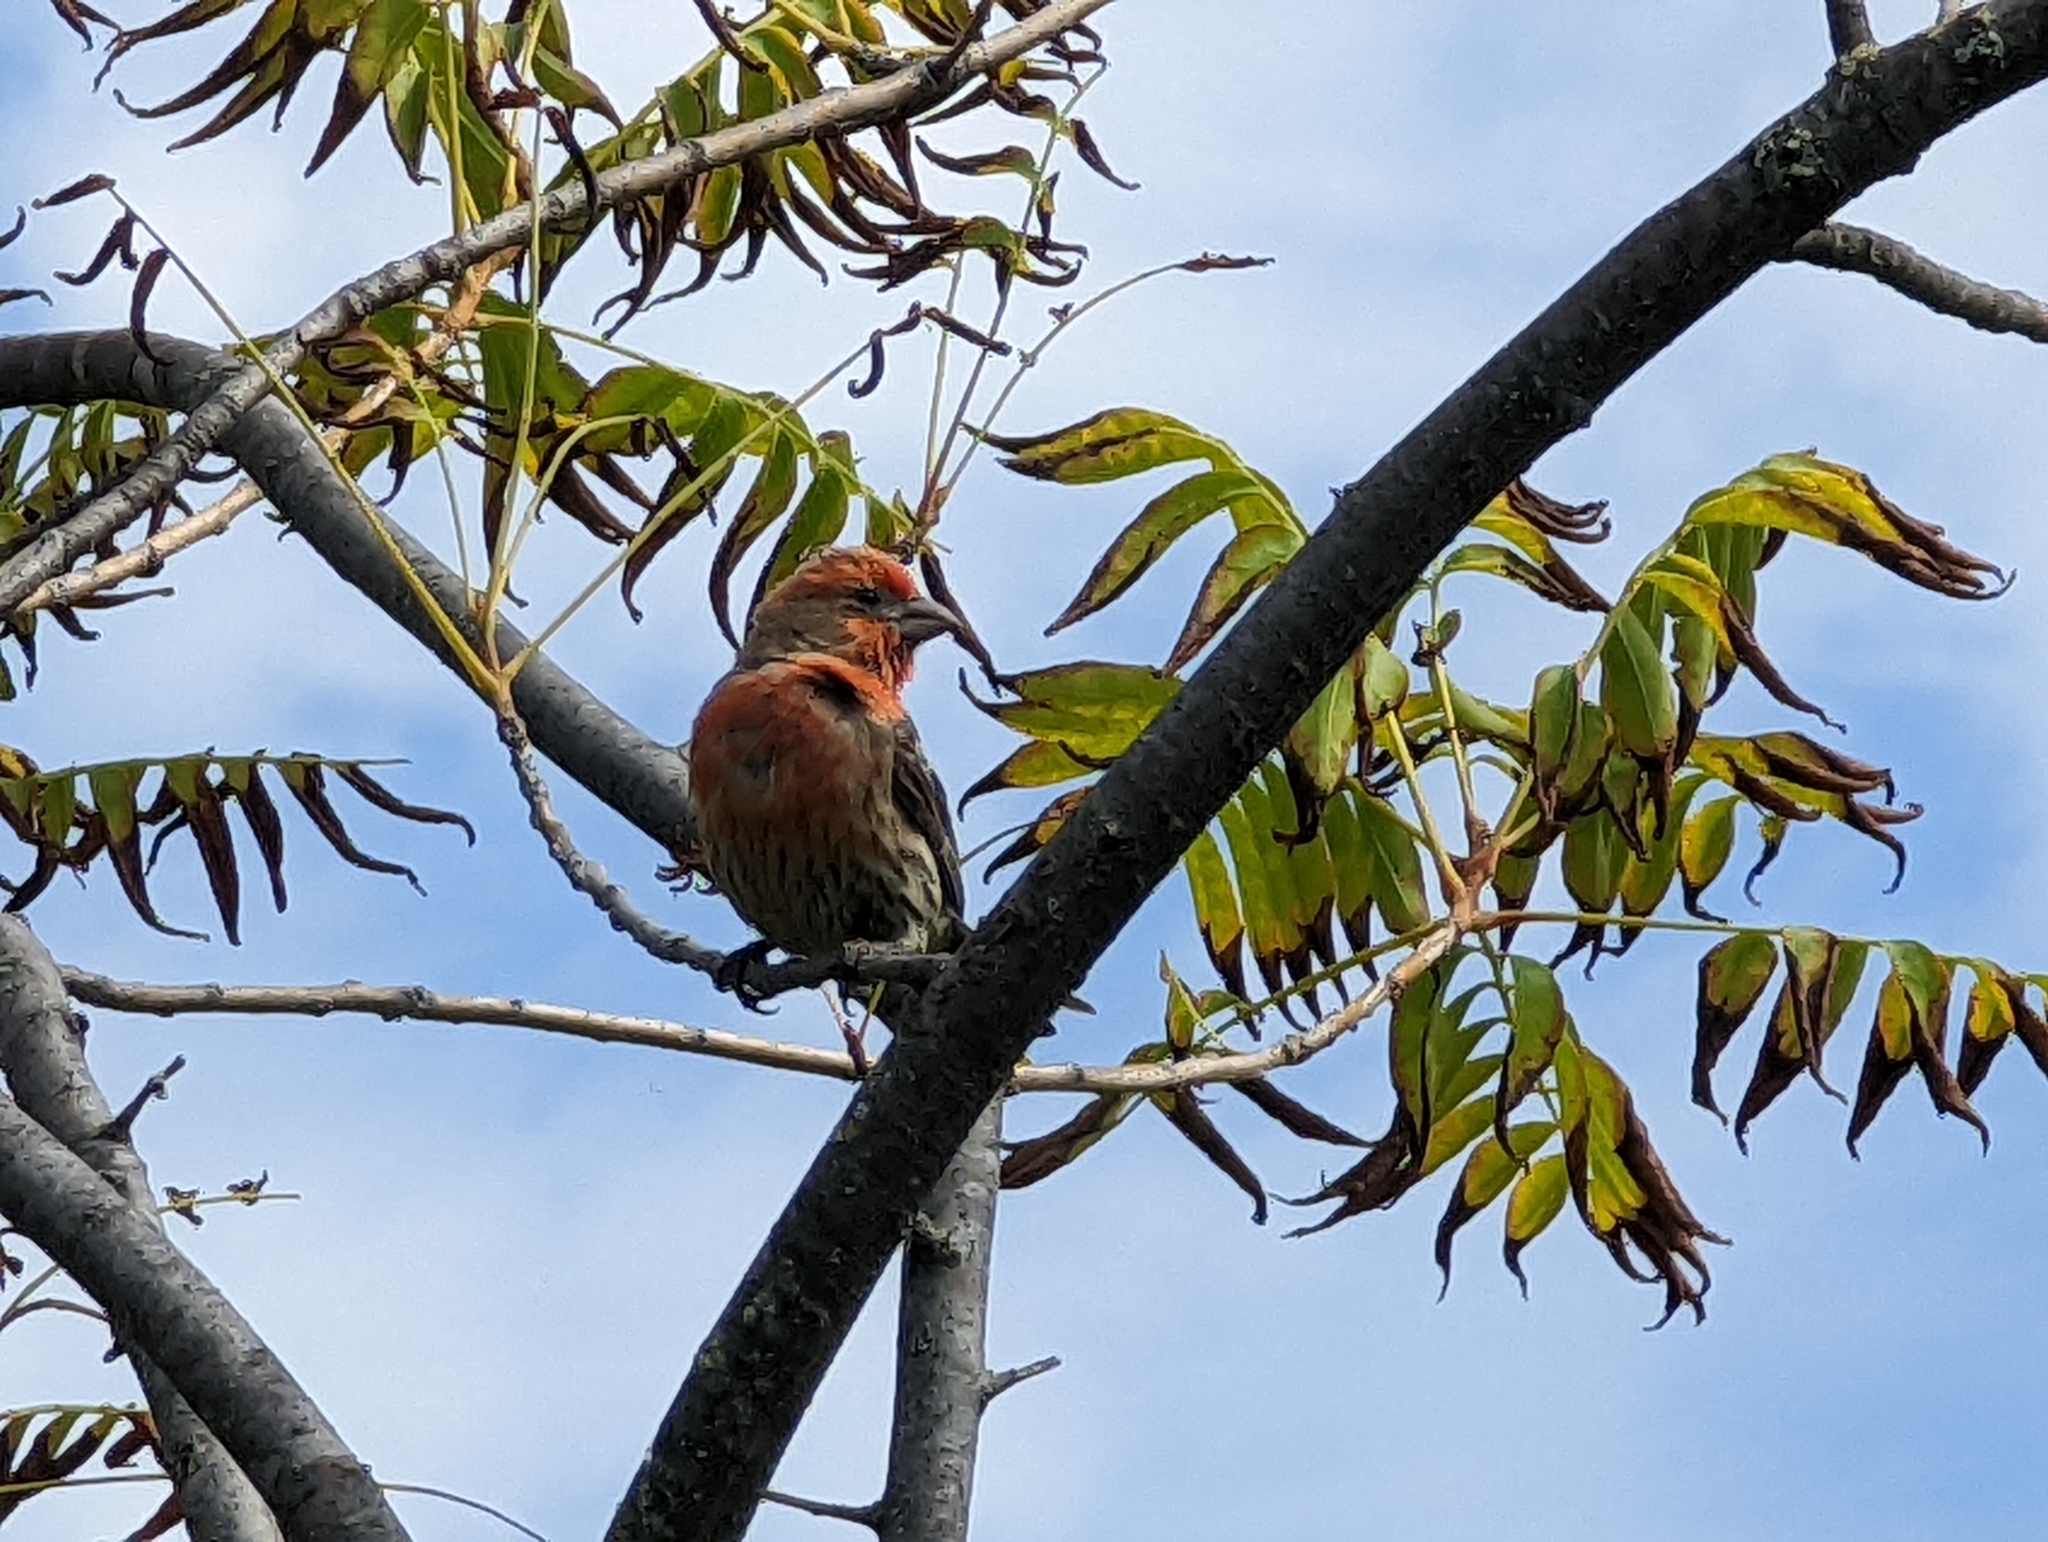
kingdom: Animalia
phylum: Chordata
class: Aves
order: Passeriformes
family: Fringillidae
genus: Haemorhous
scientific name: Haemorhous mexicanus
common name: House finch
